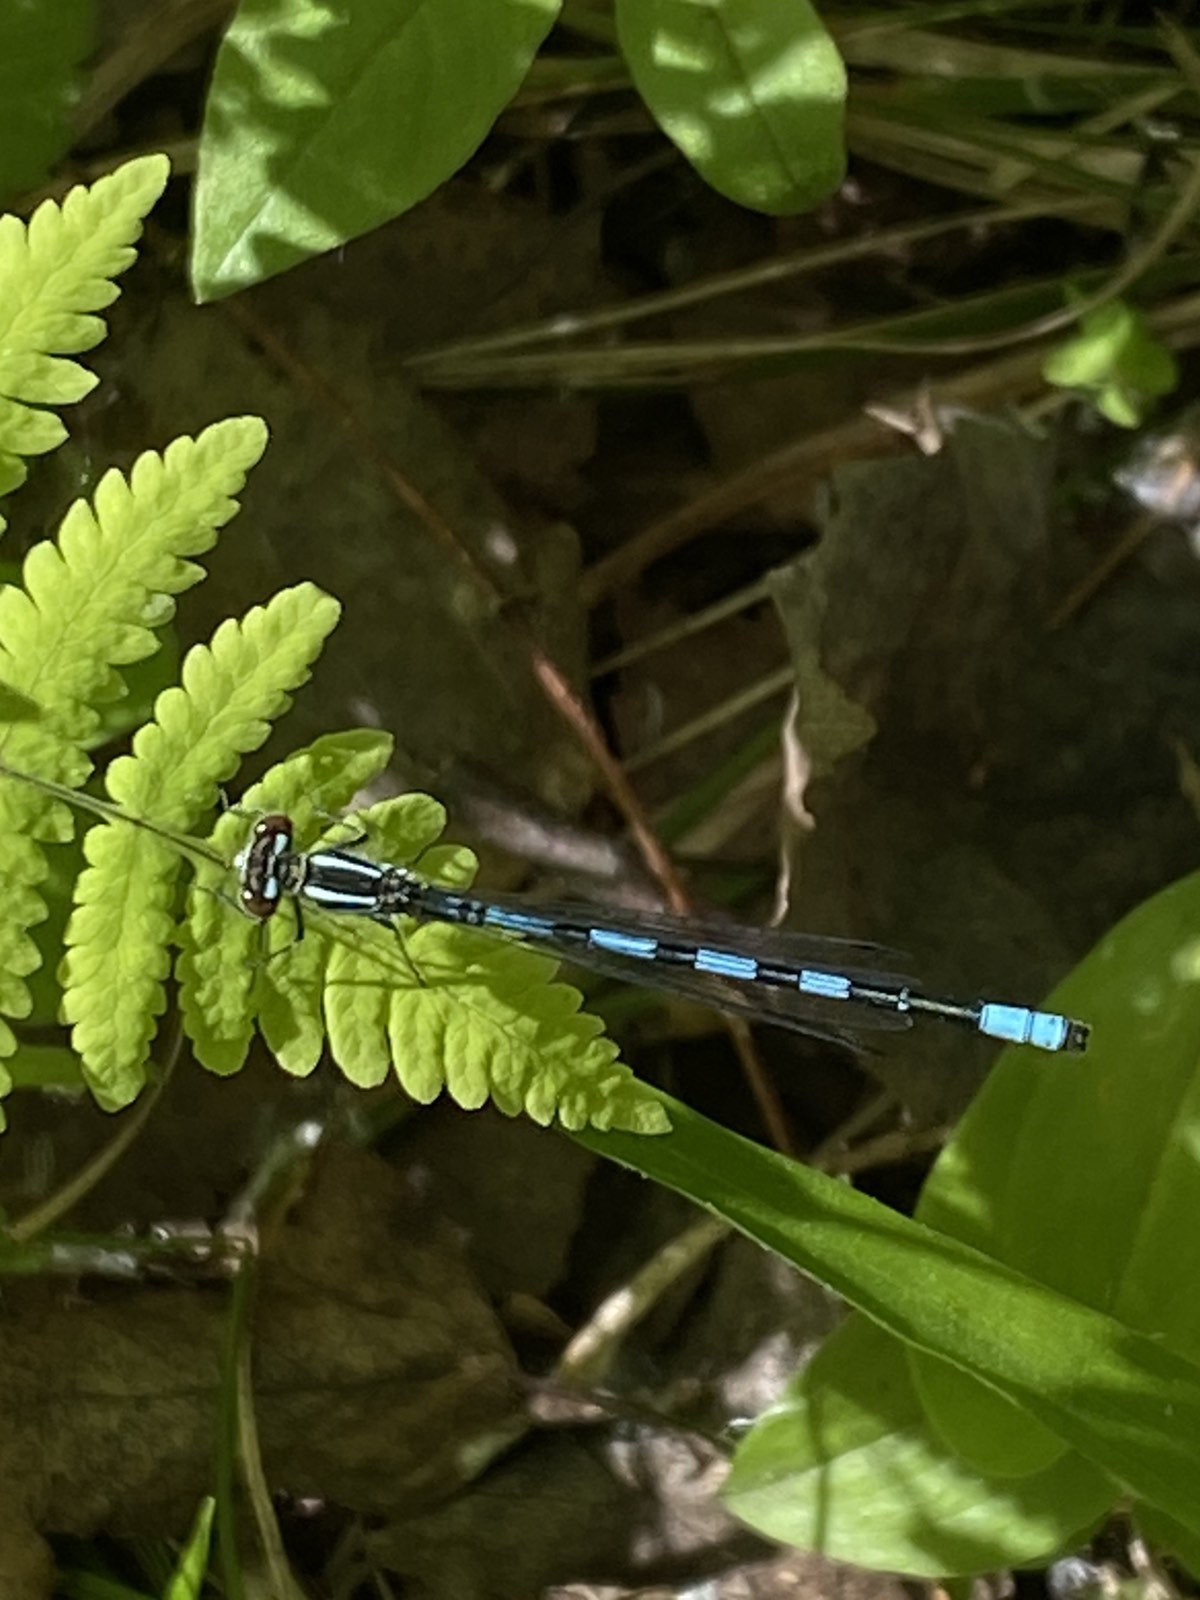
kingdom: Animalia
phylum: Arthropoda
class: Insecta
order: Odonata
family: Coenagrionidae
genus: Coenagrion
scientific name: Coenagrion hastulatum
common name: Spearhead bluet
